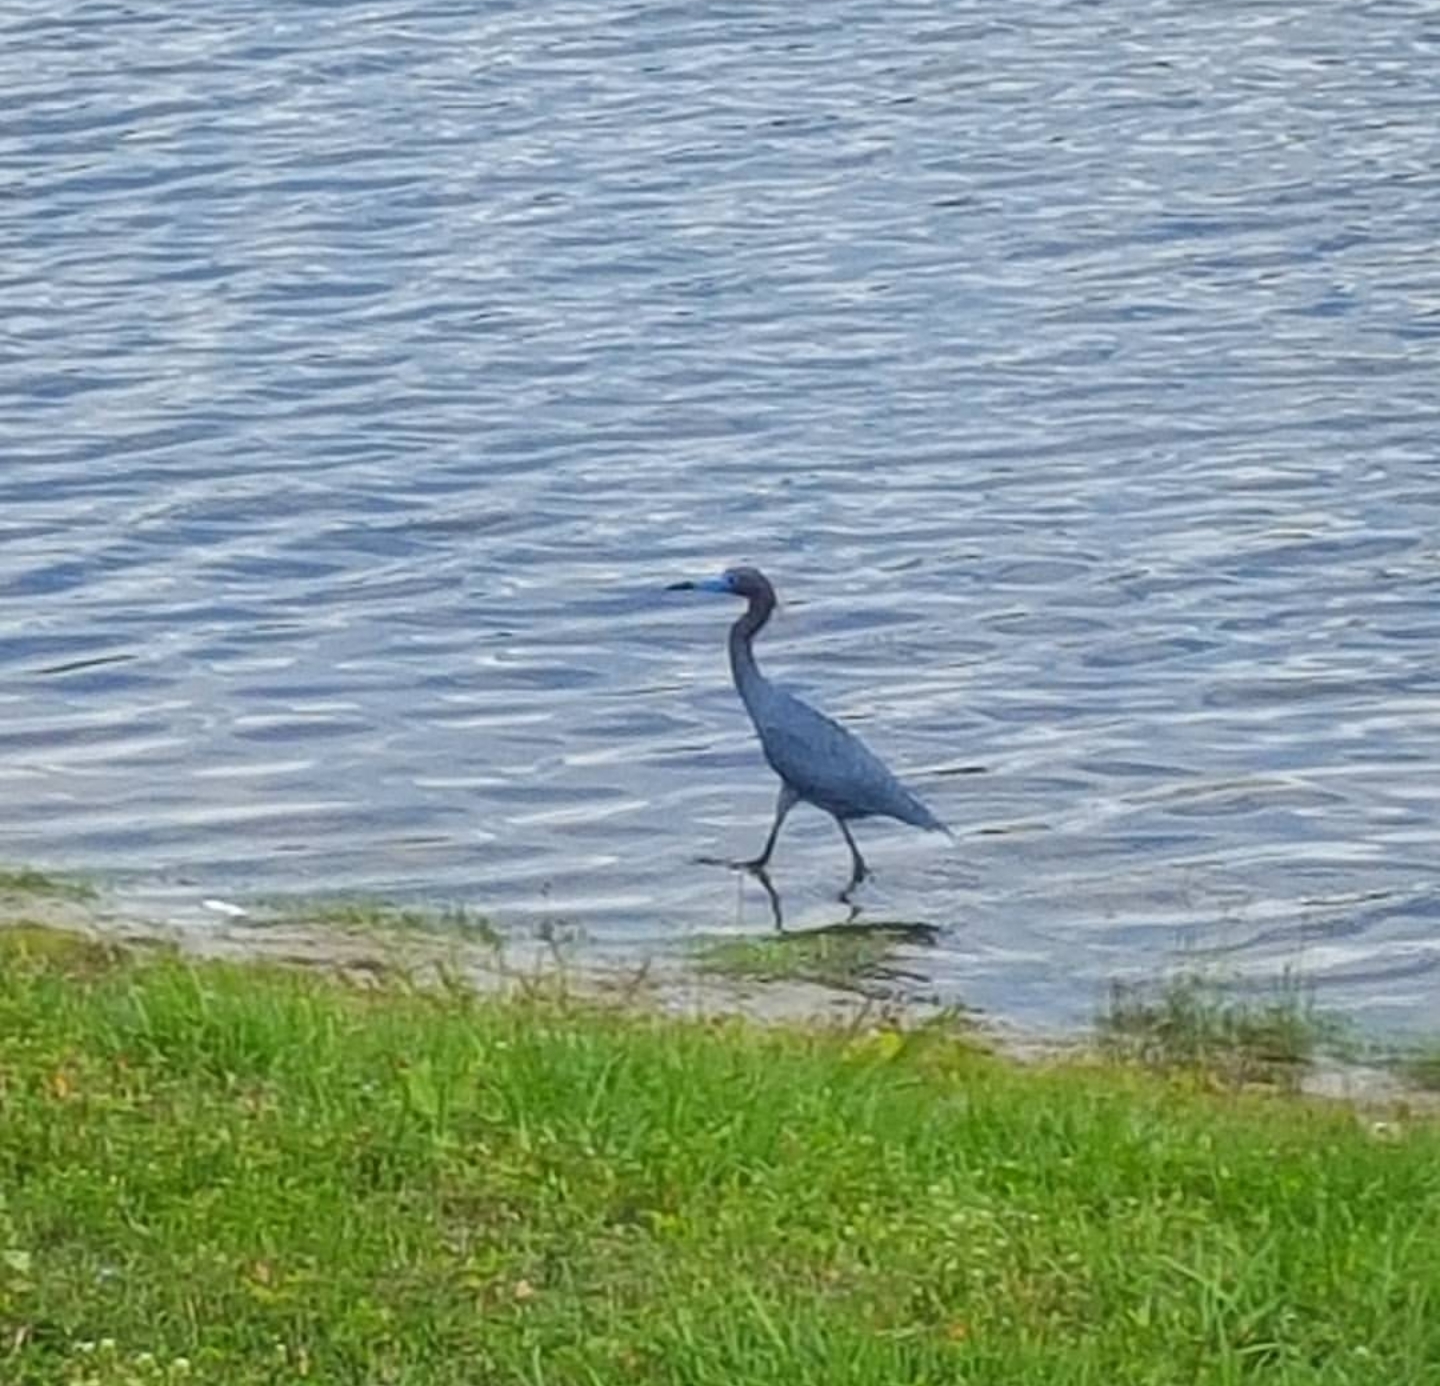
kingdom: Animalia
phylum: Chordata
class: Aves
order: Pelecaniformes
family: Ardeidae
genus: Egretta
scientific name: Egretta caerulea
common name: Little blue heron
